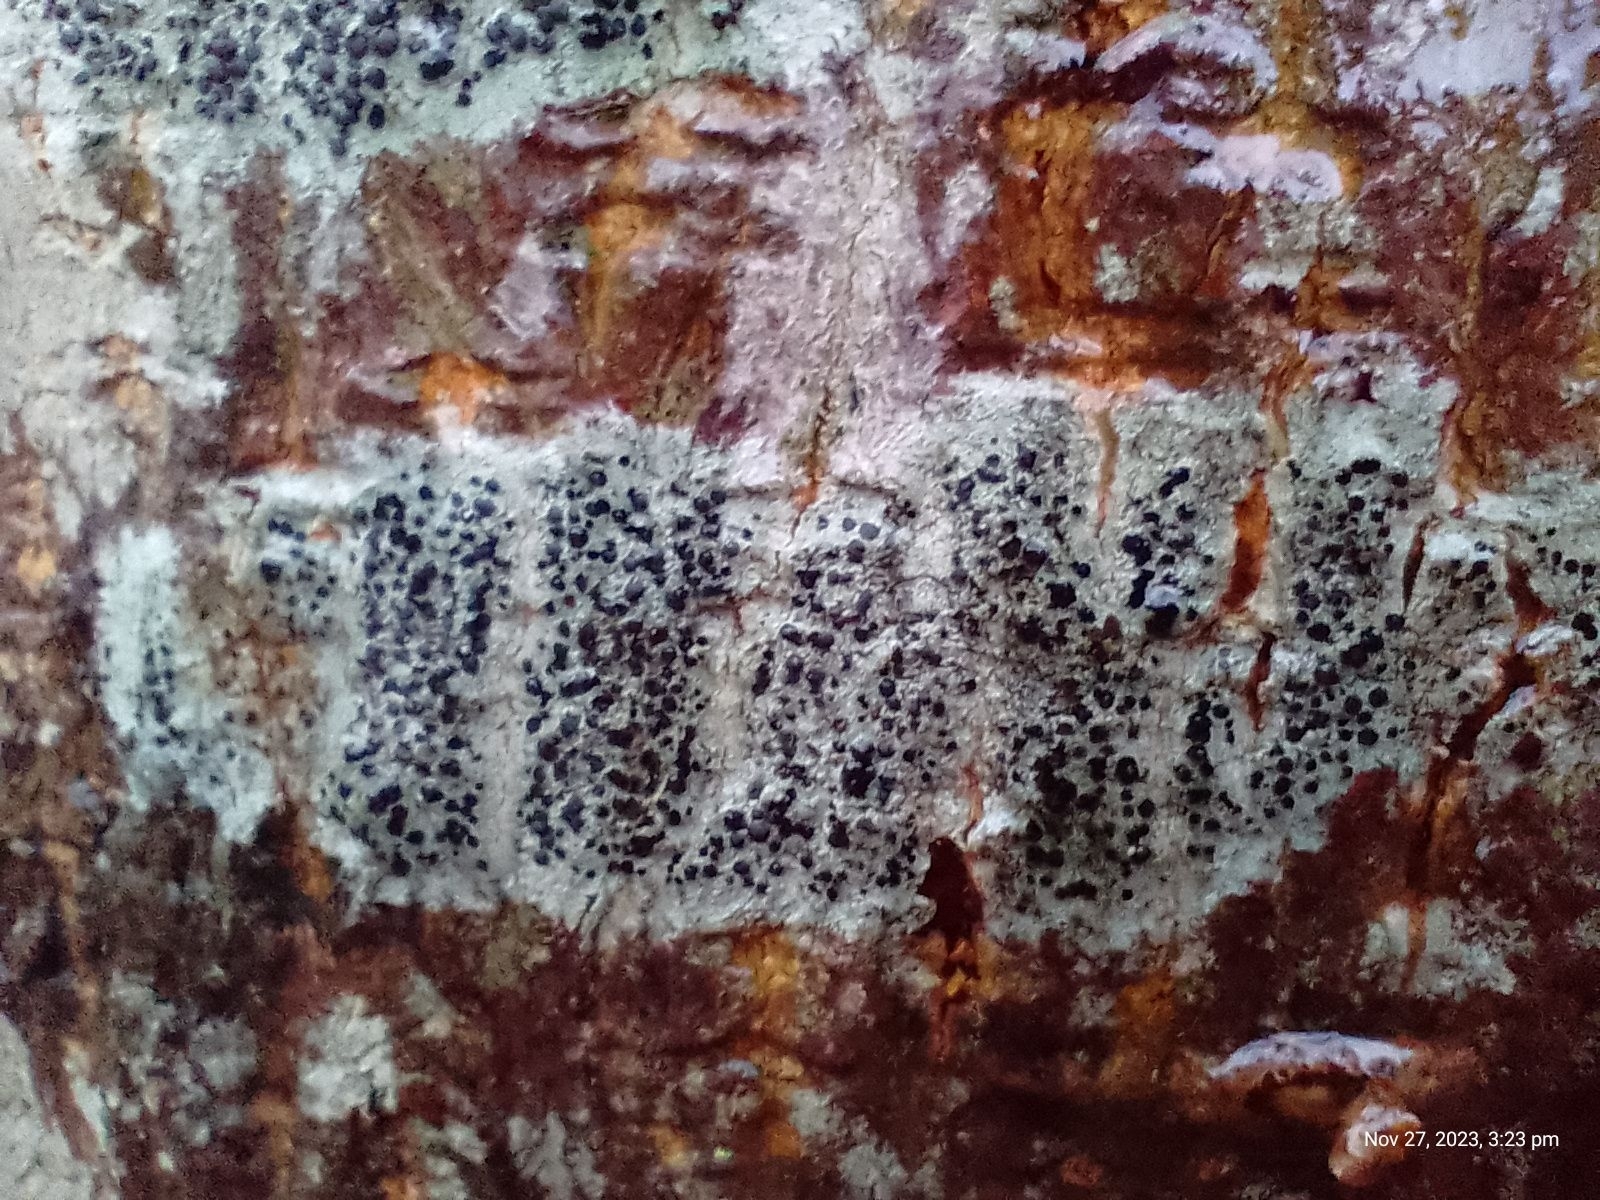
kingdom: Fungi
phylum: Ascomycota
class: Lecanoromycetes
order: Lecanorales
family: Lecanoraceae
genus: Lecidella
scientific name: Lecidella elaeochroma
